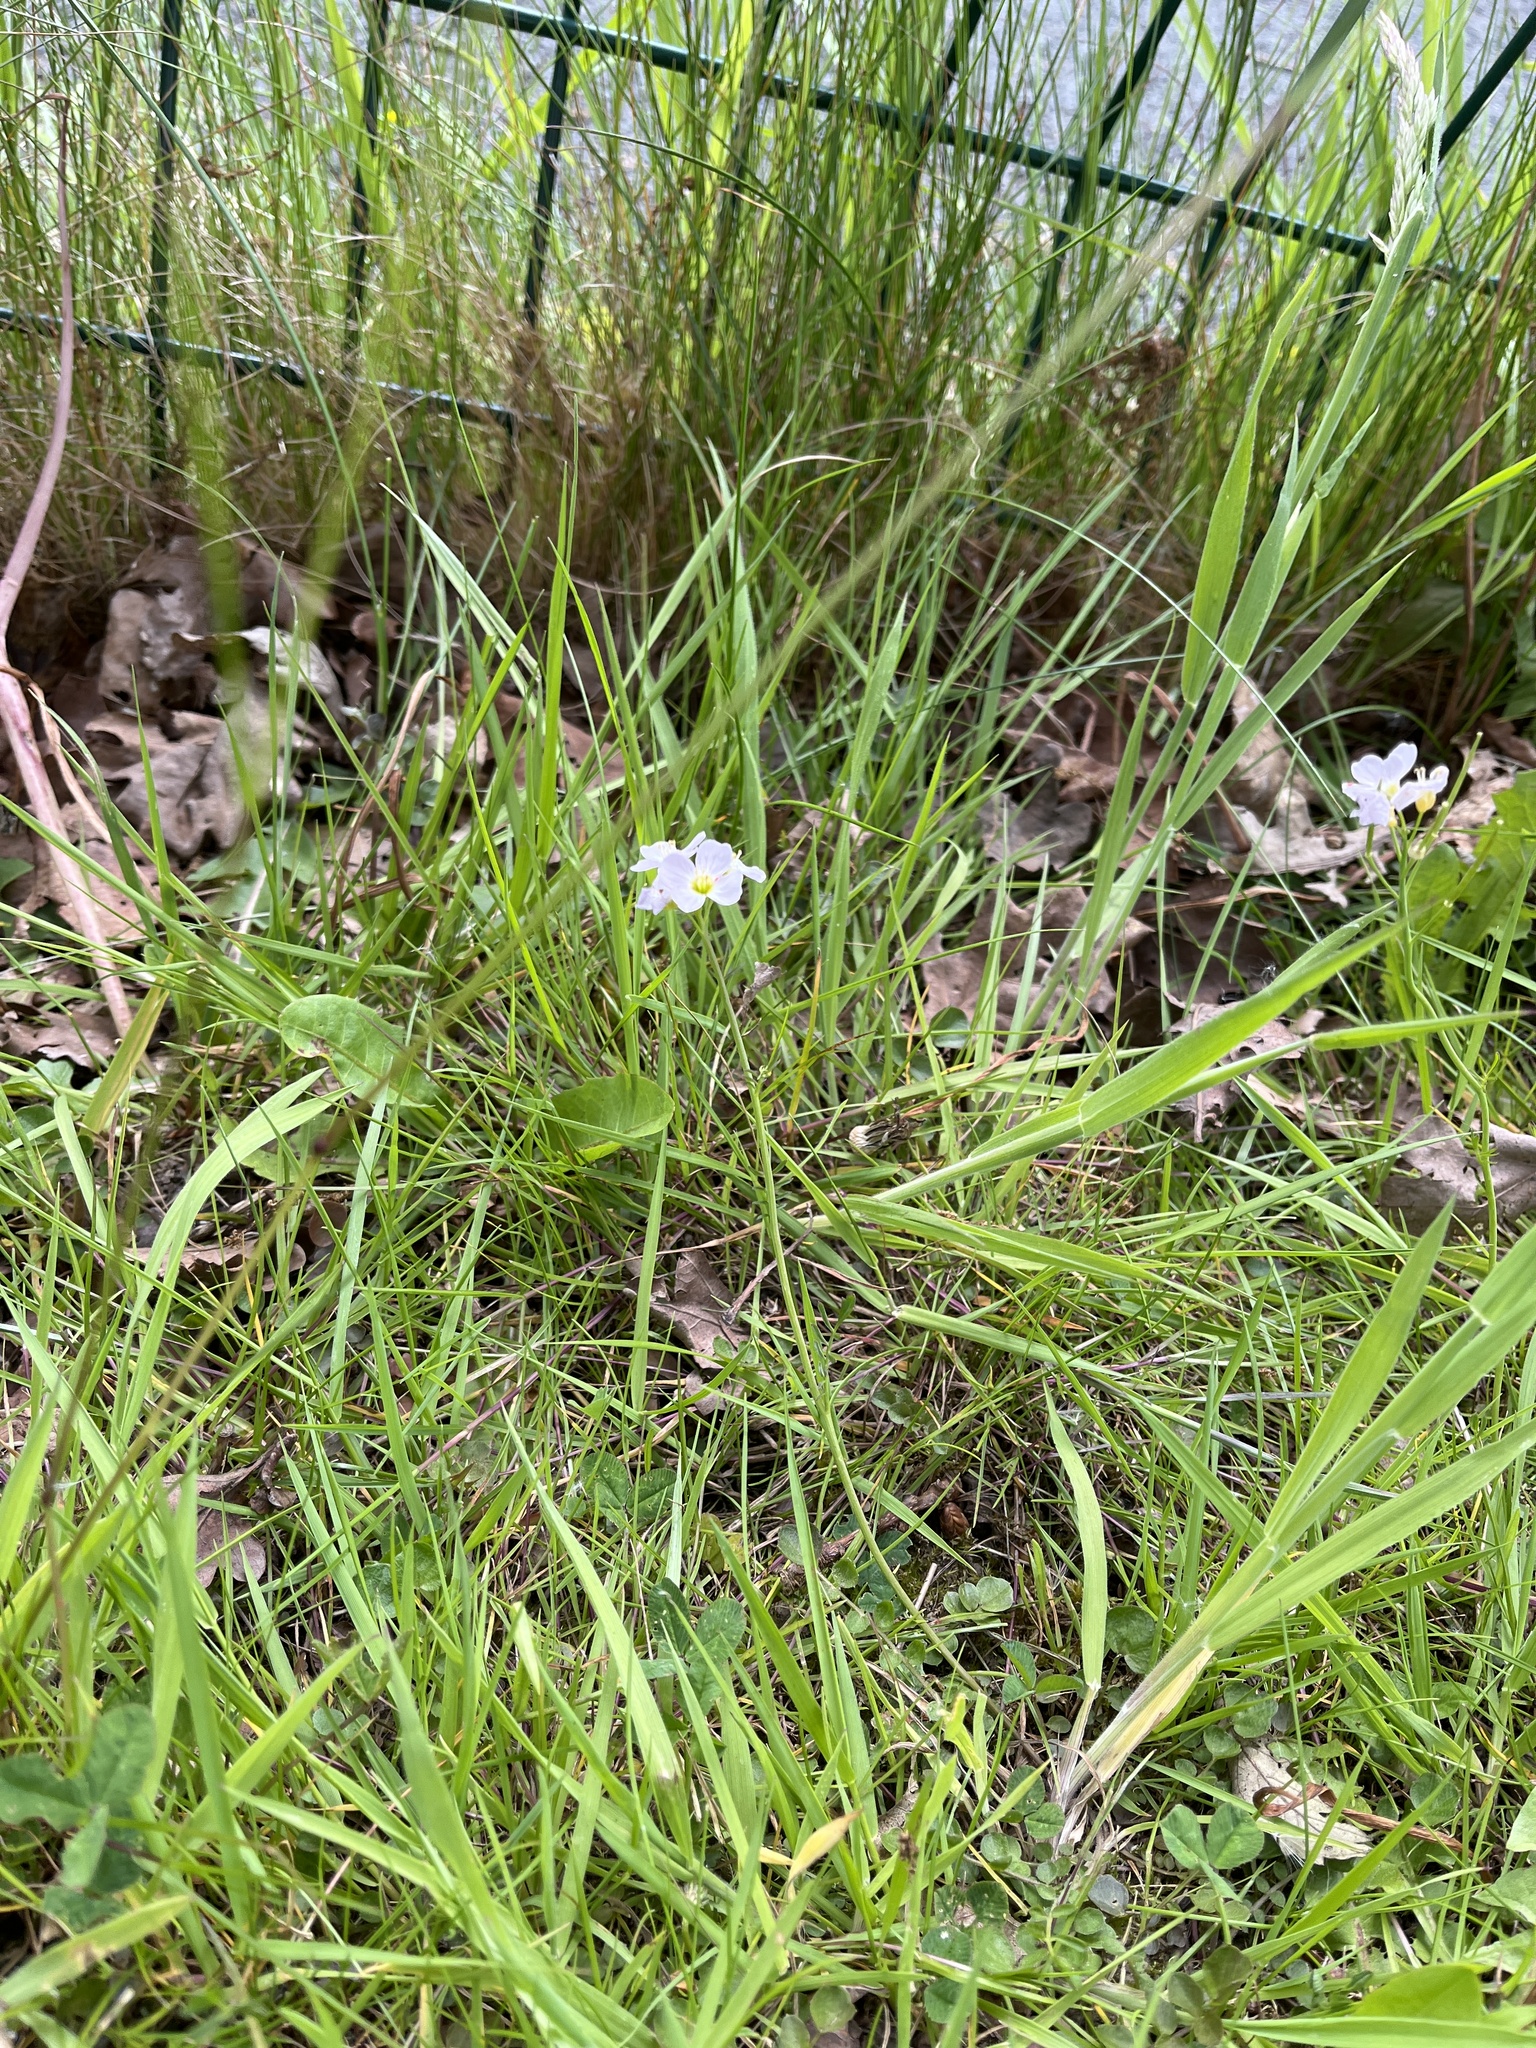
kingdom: Plantae
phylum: Tracheophyta
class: Magnoliopsida
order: Brassicales
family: Brassicaceae
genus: Cardamine
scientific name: Cardamine pratensis
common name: Cuckoo flower
